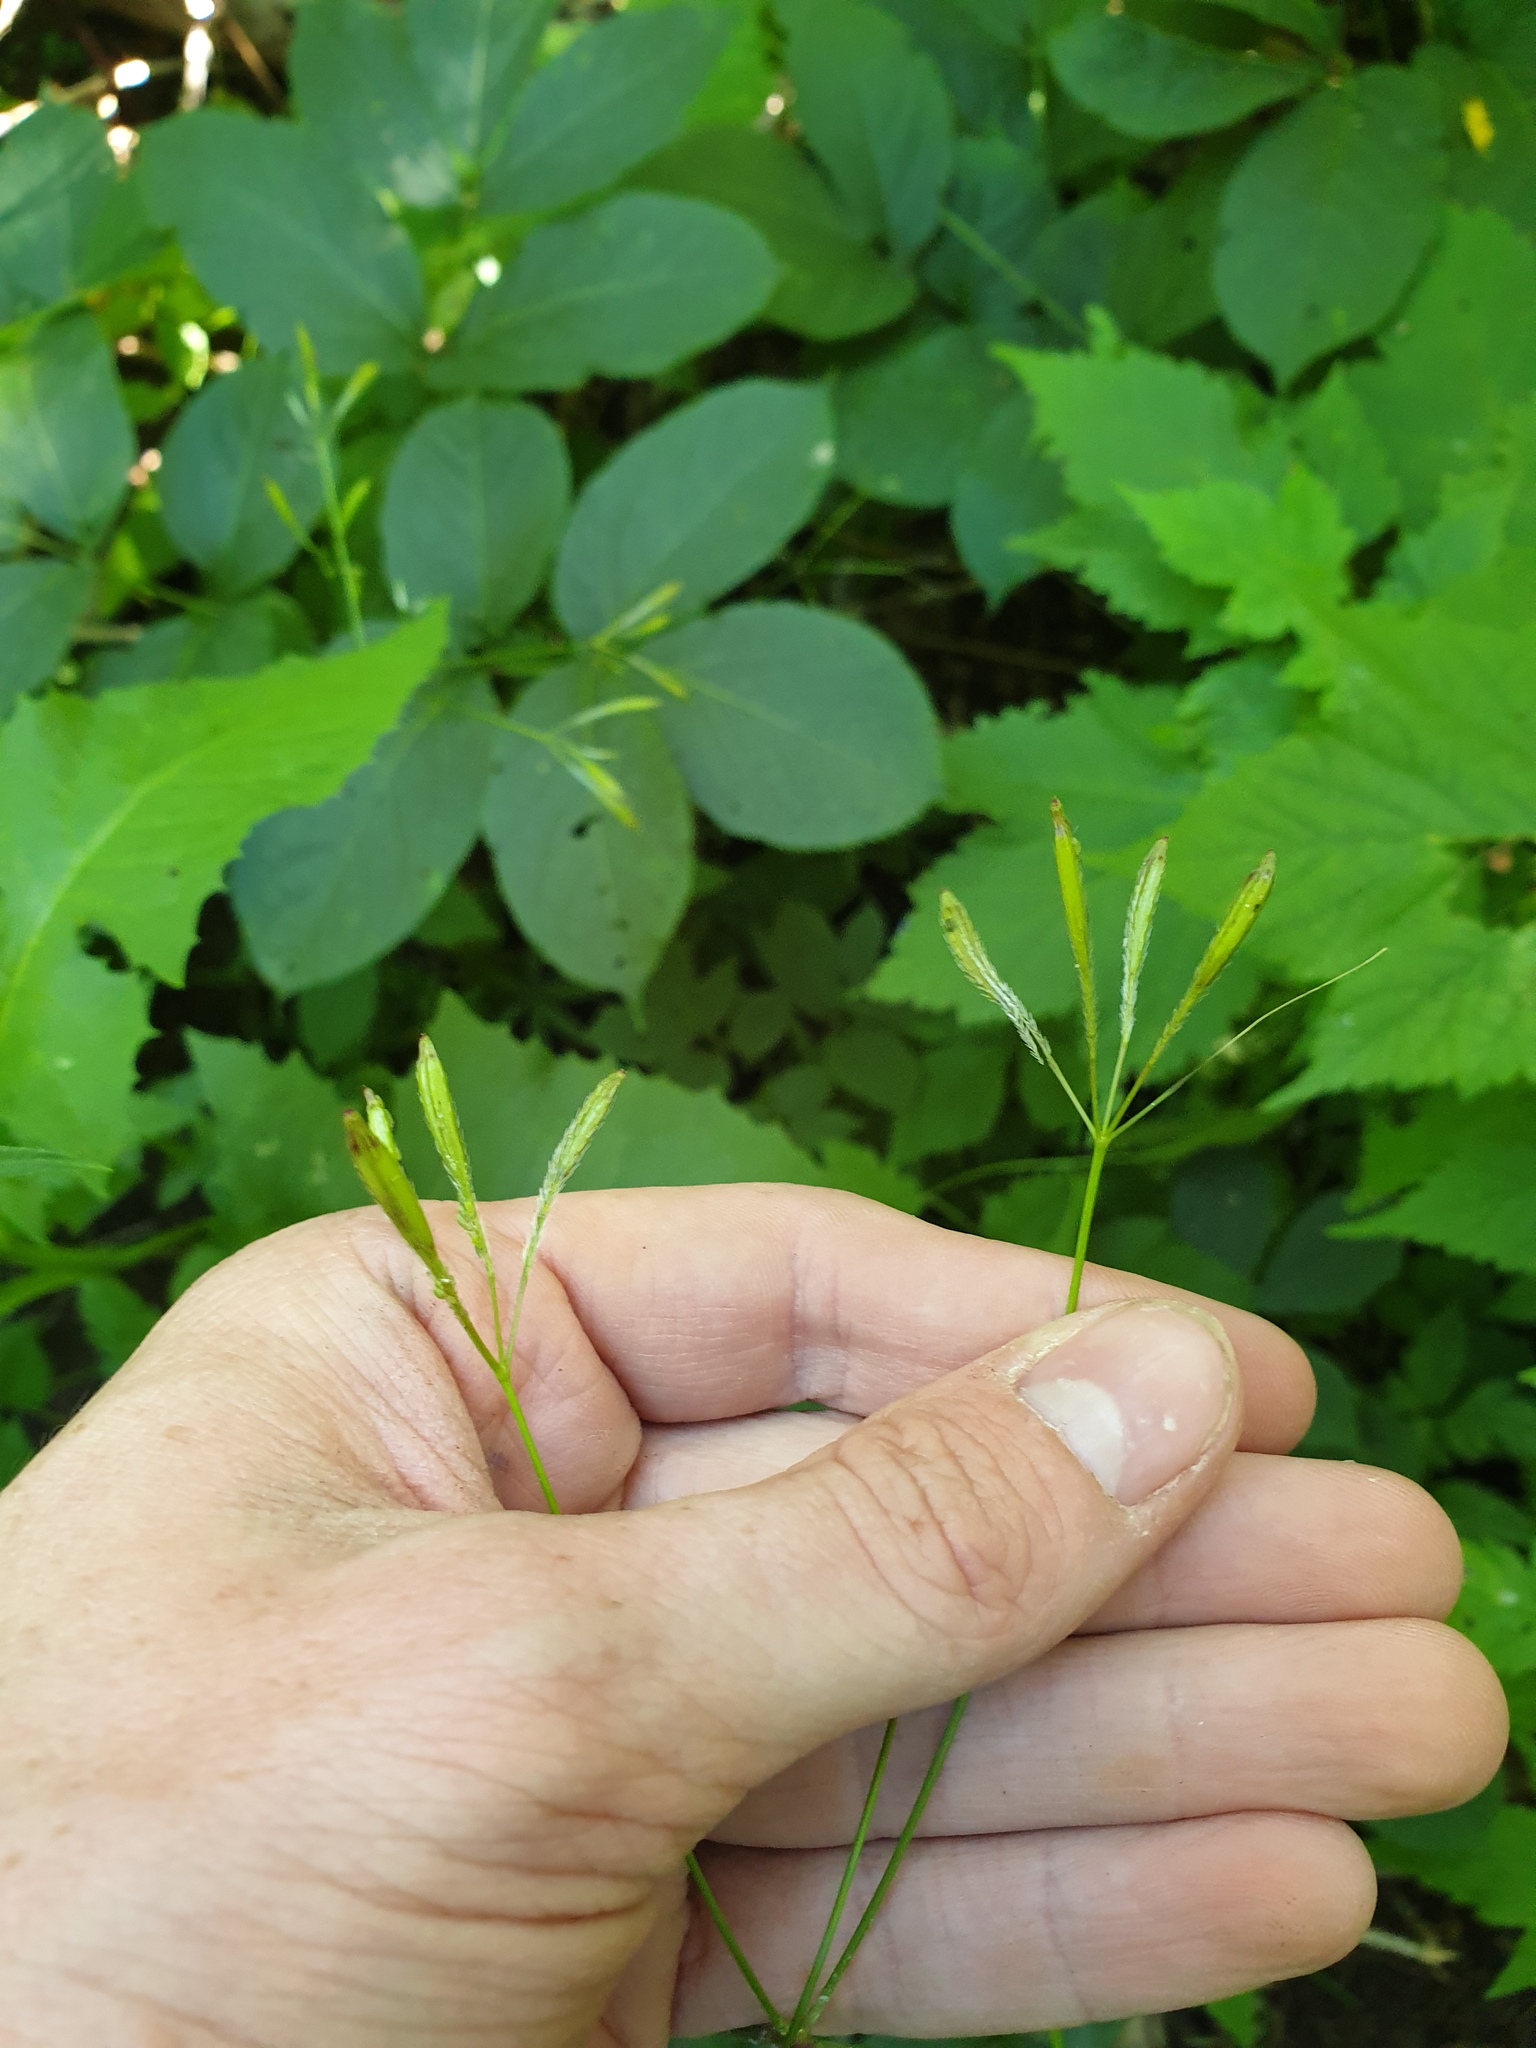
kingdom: Plantae
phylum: Tracheophyta
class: Magnoliopsida
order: Apiales
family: Apiaceae
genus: Osmorhiza
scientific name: Osmorhiza berteroi
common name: Mountain sweet cicely
